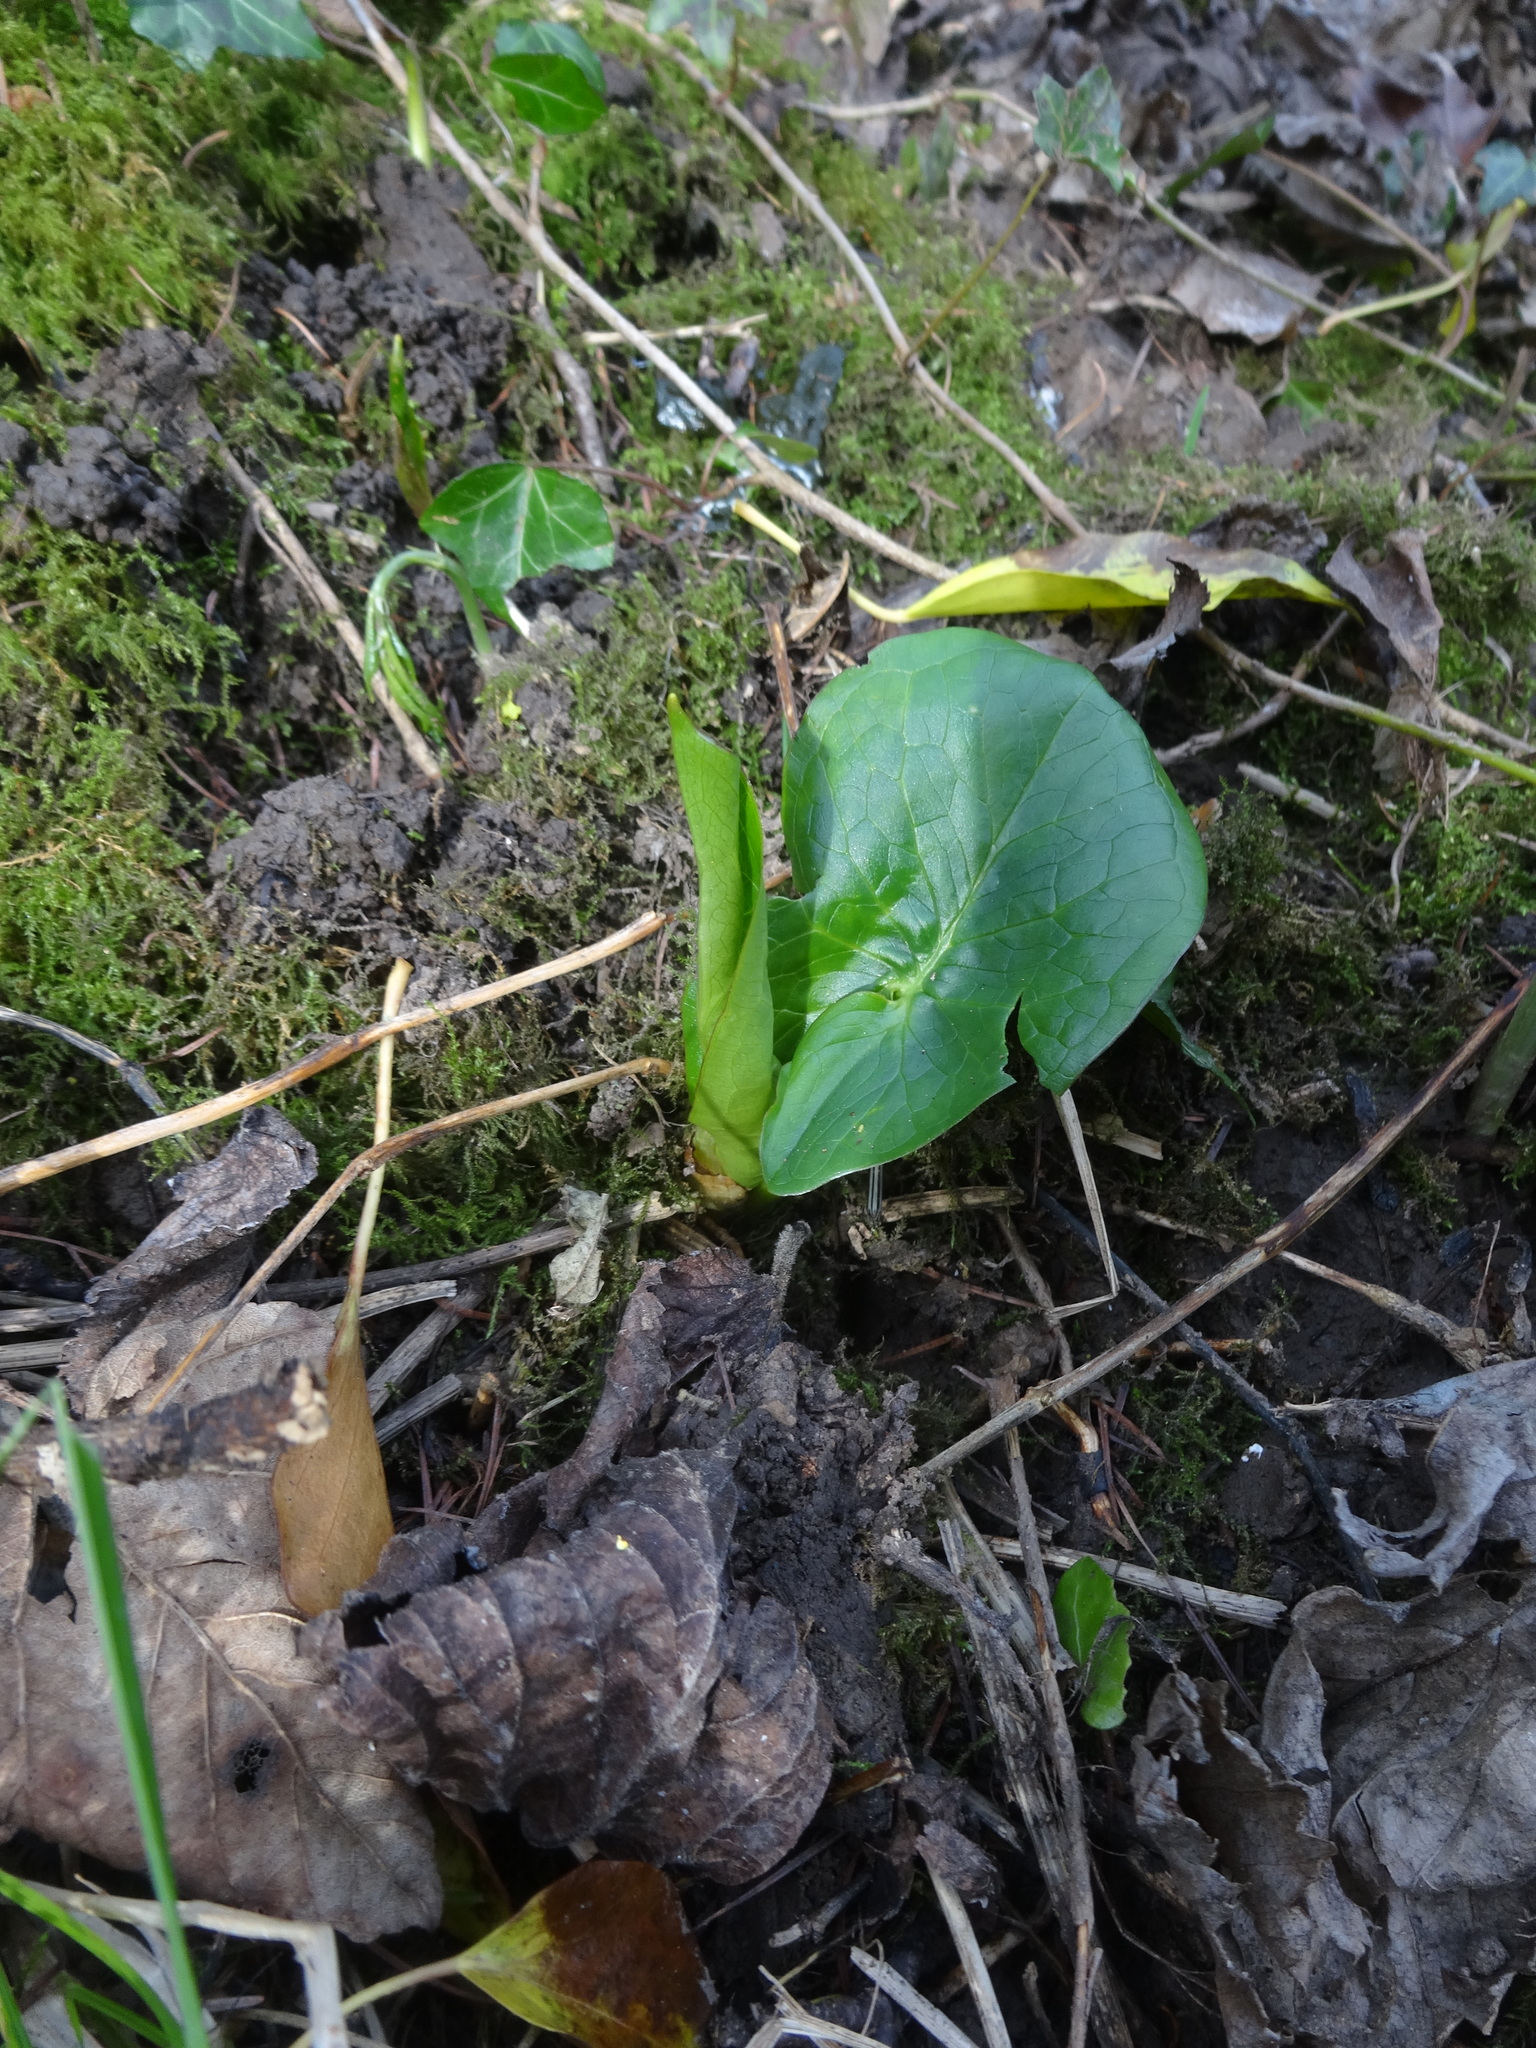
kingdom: Plantae
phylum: Tracheophyta
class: Liliopsida
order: Alismatales
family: Araceae
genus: Arum
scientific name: Arum maculatum
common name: Lords-and-ladies
